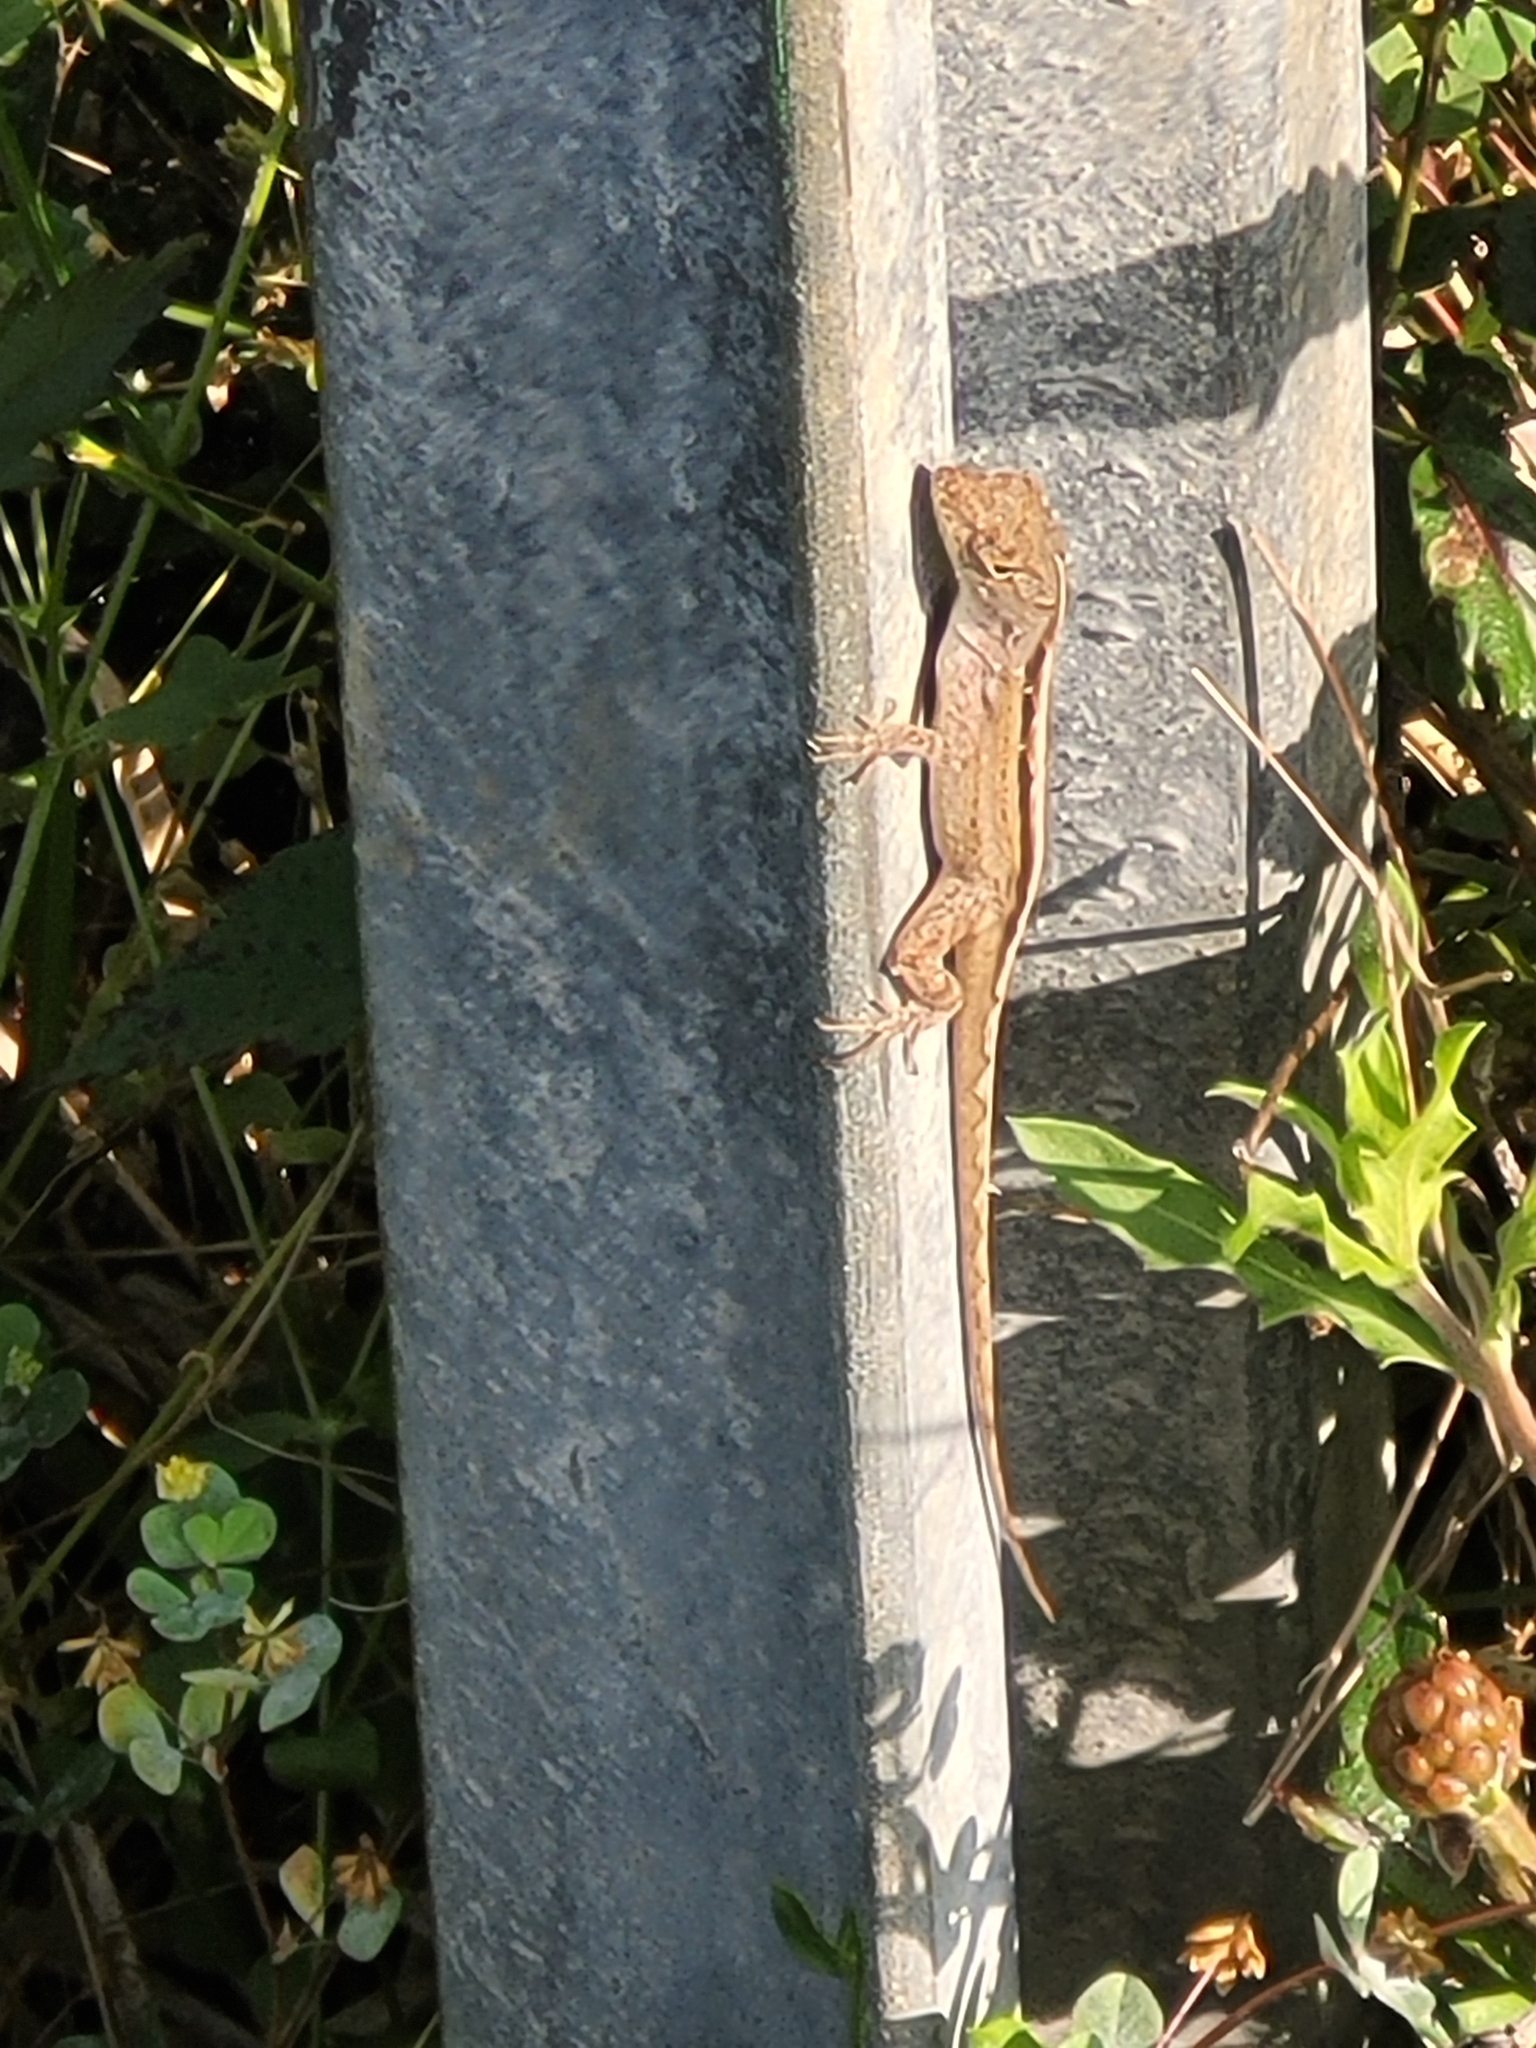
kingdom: Animalia
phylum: Chordata
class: Squamata
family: Dactyloidae
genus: Anolis
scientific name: Anolis sagrei
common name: Brown anole
